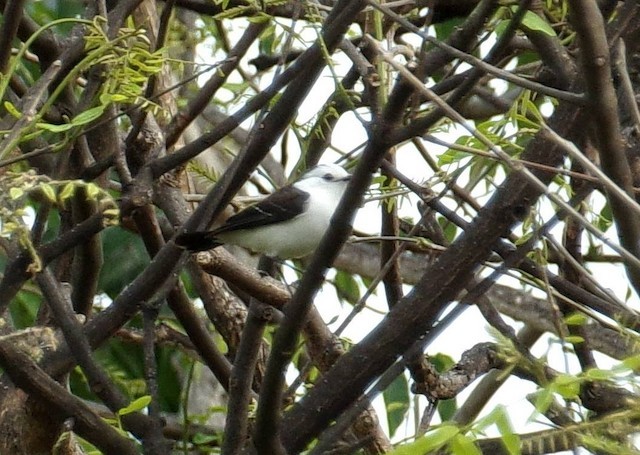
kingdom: Animalia
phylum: Chordata
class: Aves
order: Passeriformes
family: Tyrannidae
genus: Fluvicola
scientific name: Fluvicola pica
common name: Pied water-tyrant
